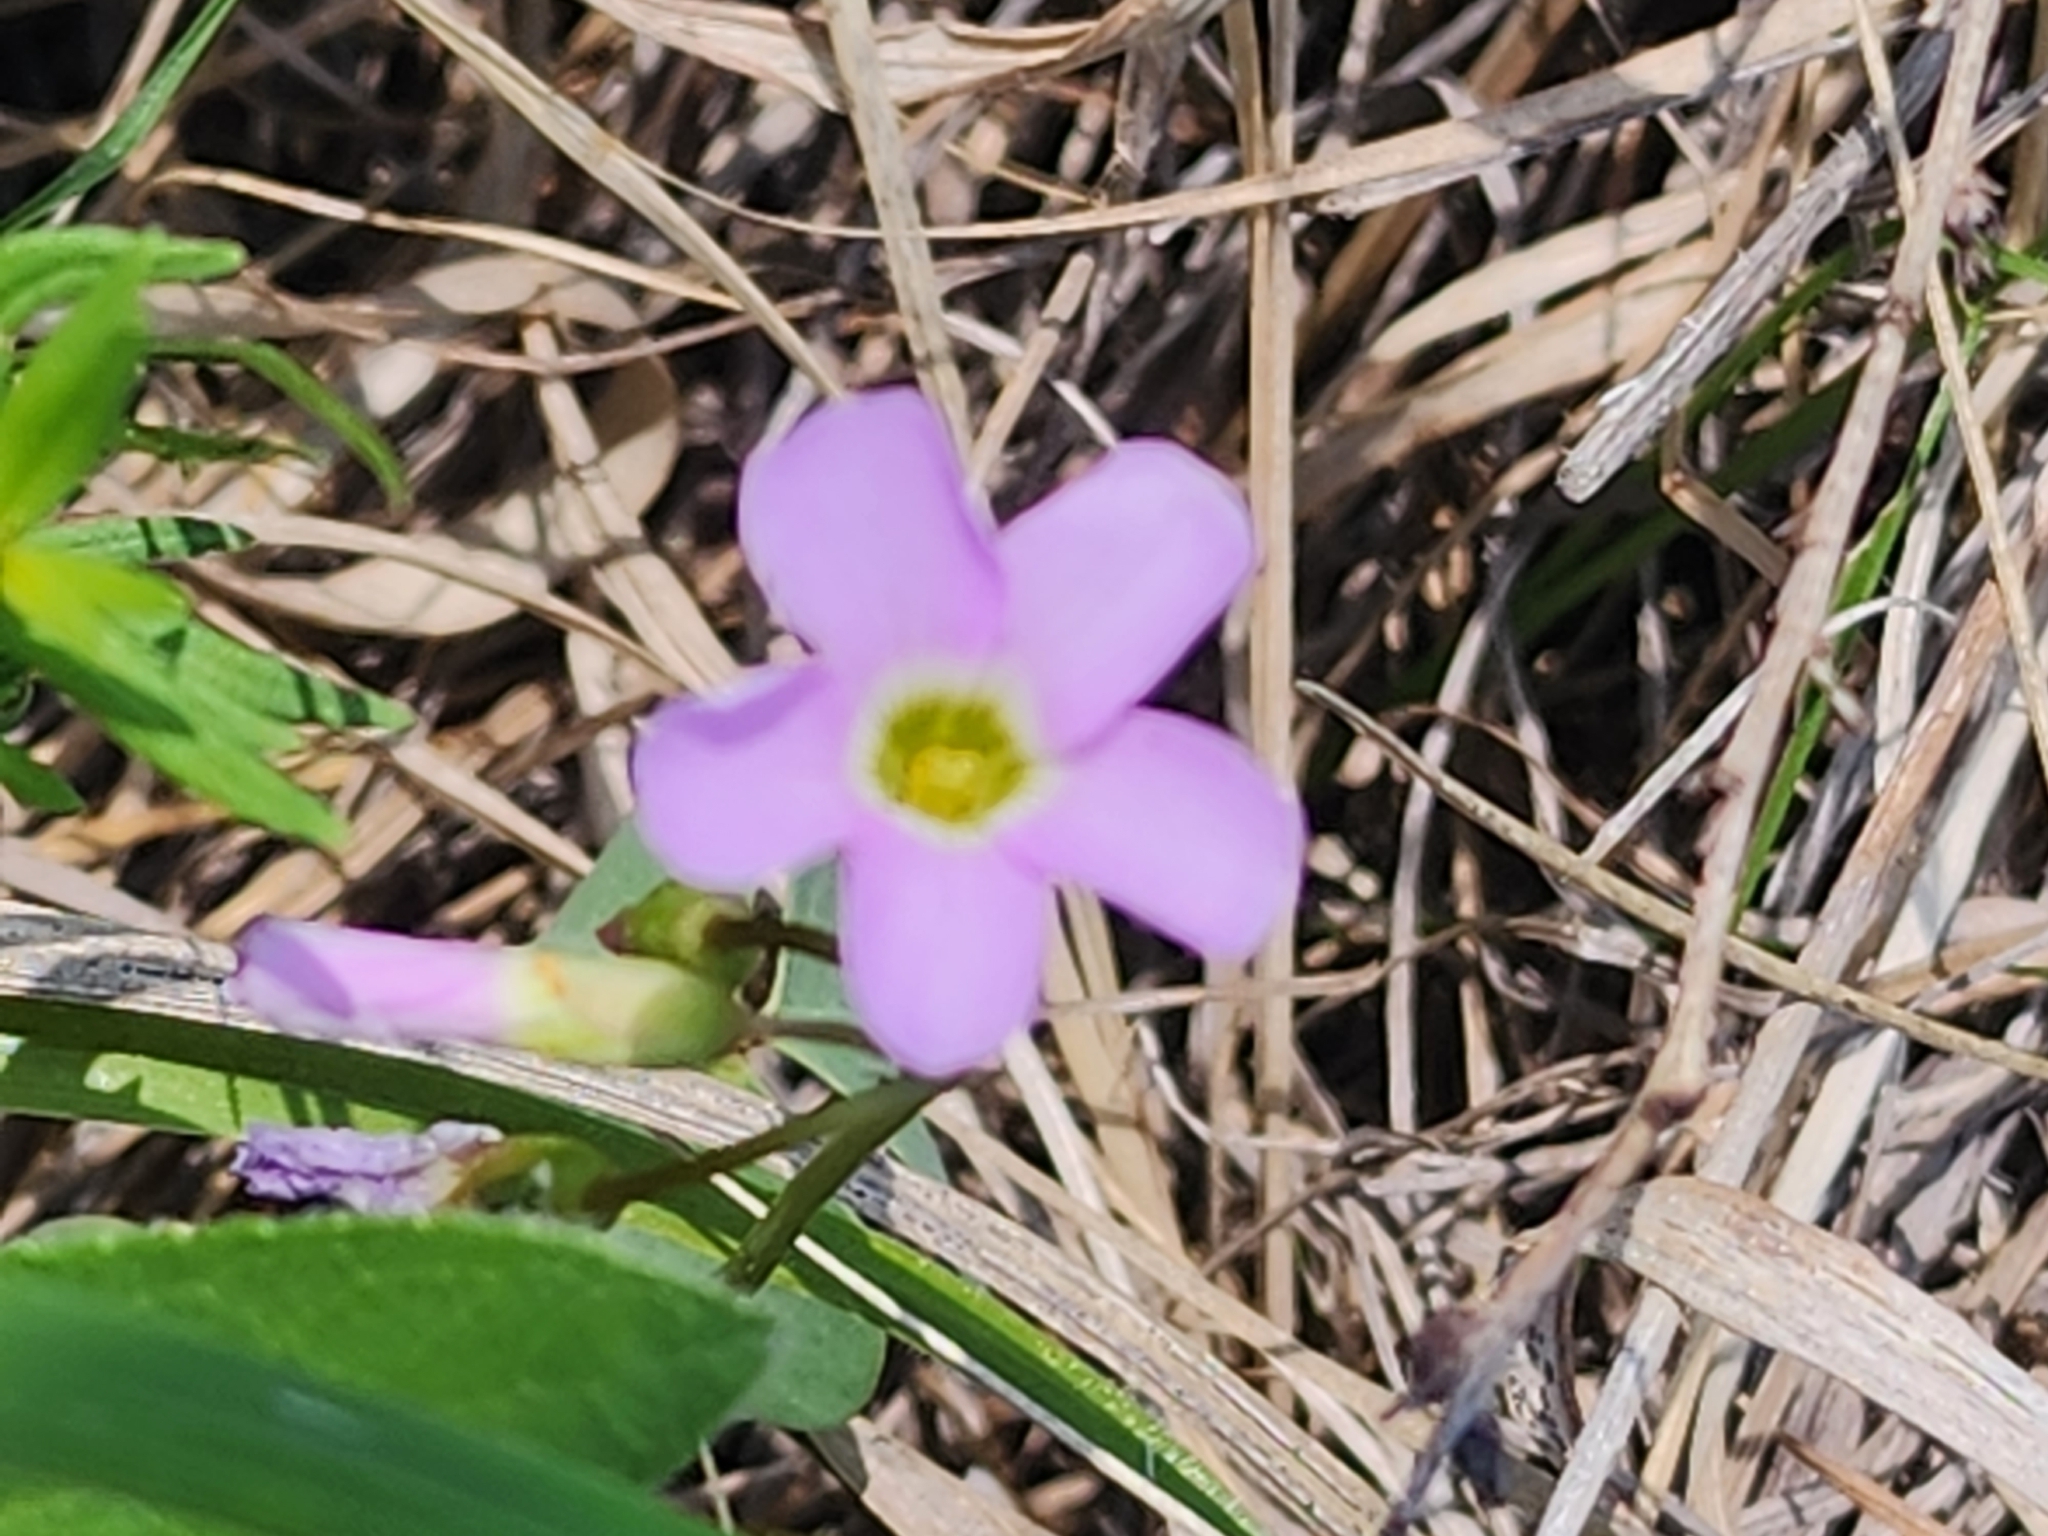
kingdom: Plantae
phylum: Tracheophyta
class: Magnoliopsida
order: Oxalidales
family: Oxalidaceae
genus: Oxalis
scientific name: Oxalis violacea
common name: Violet wood-sorrel
